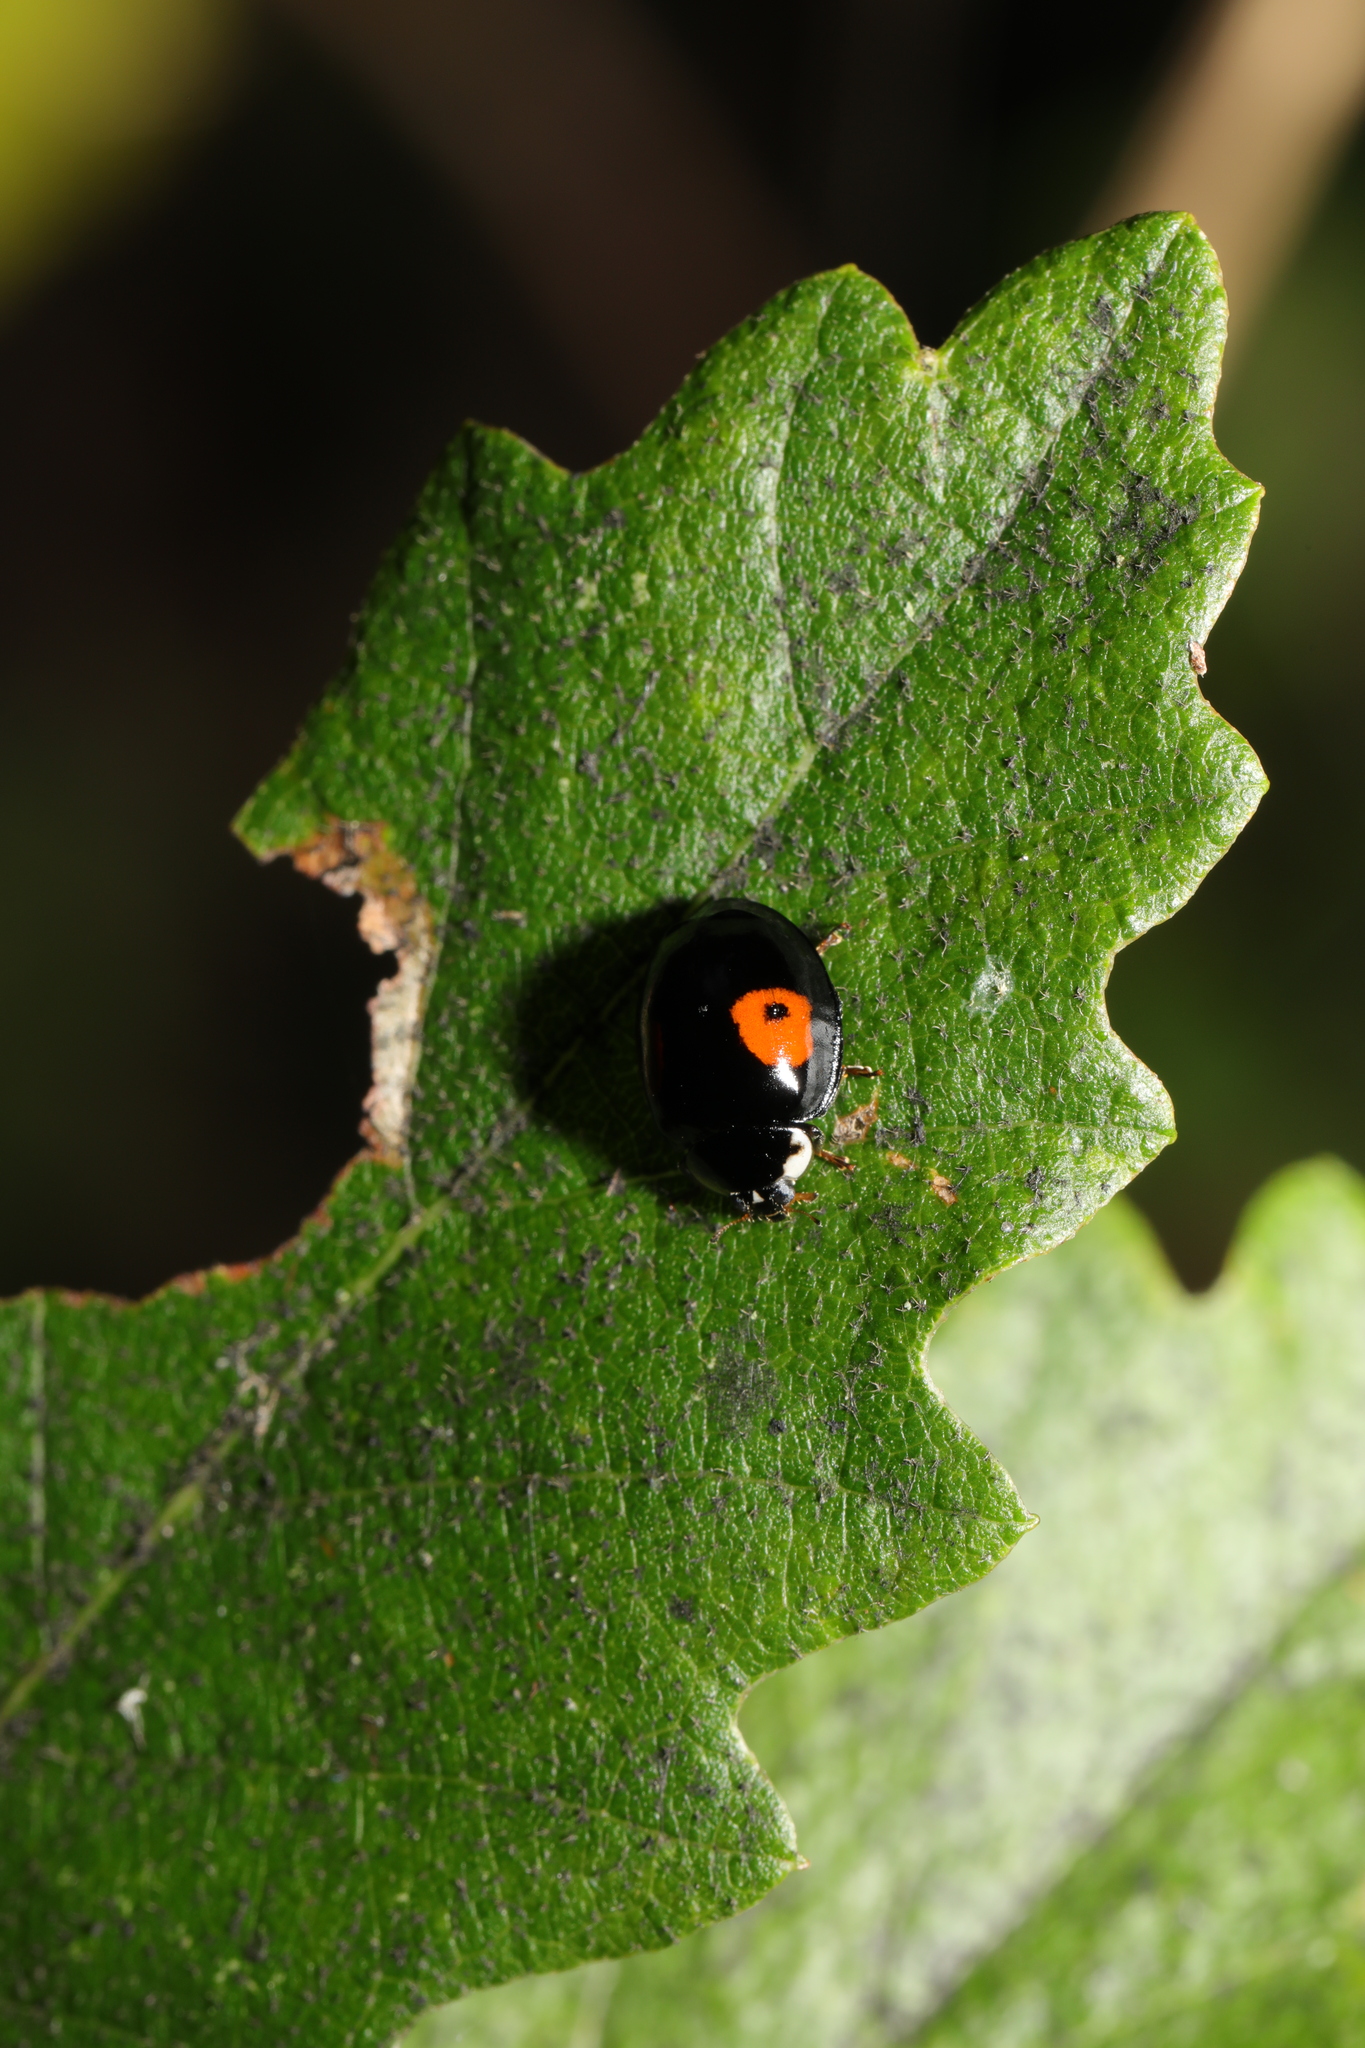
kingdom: Animalia
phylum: Arthropoda
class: Insecta
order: Coleoptera
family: Coccinellidae
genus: Harmonia
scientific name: Harmonia axyridis
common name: Harlequin ladybird
